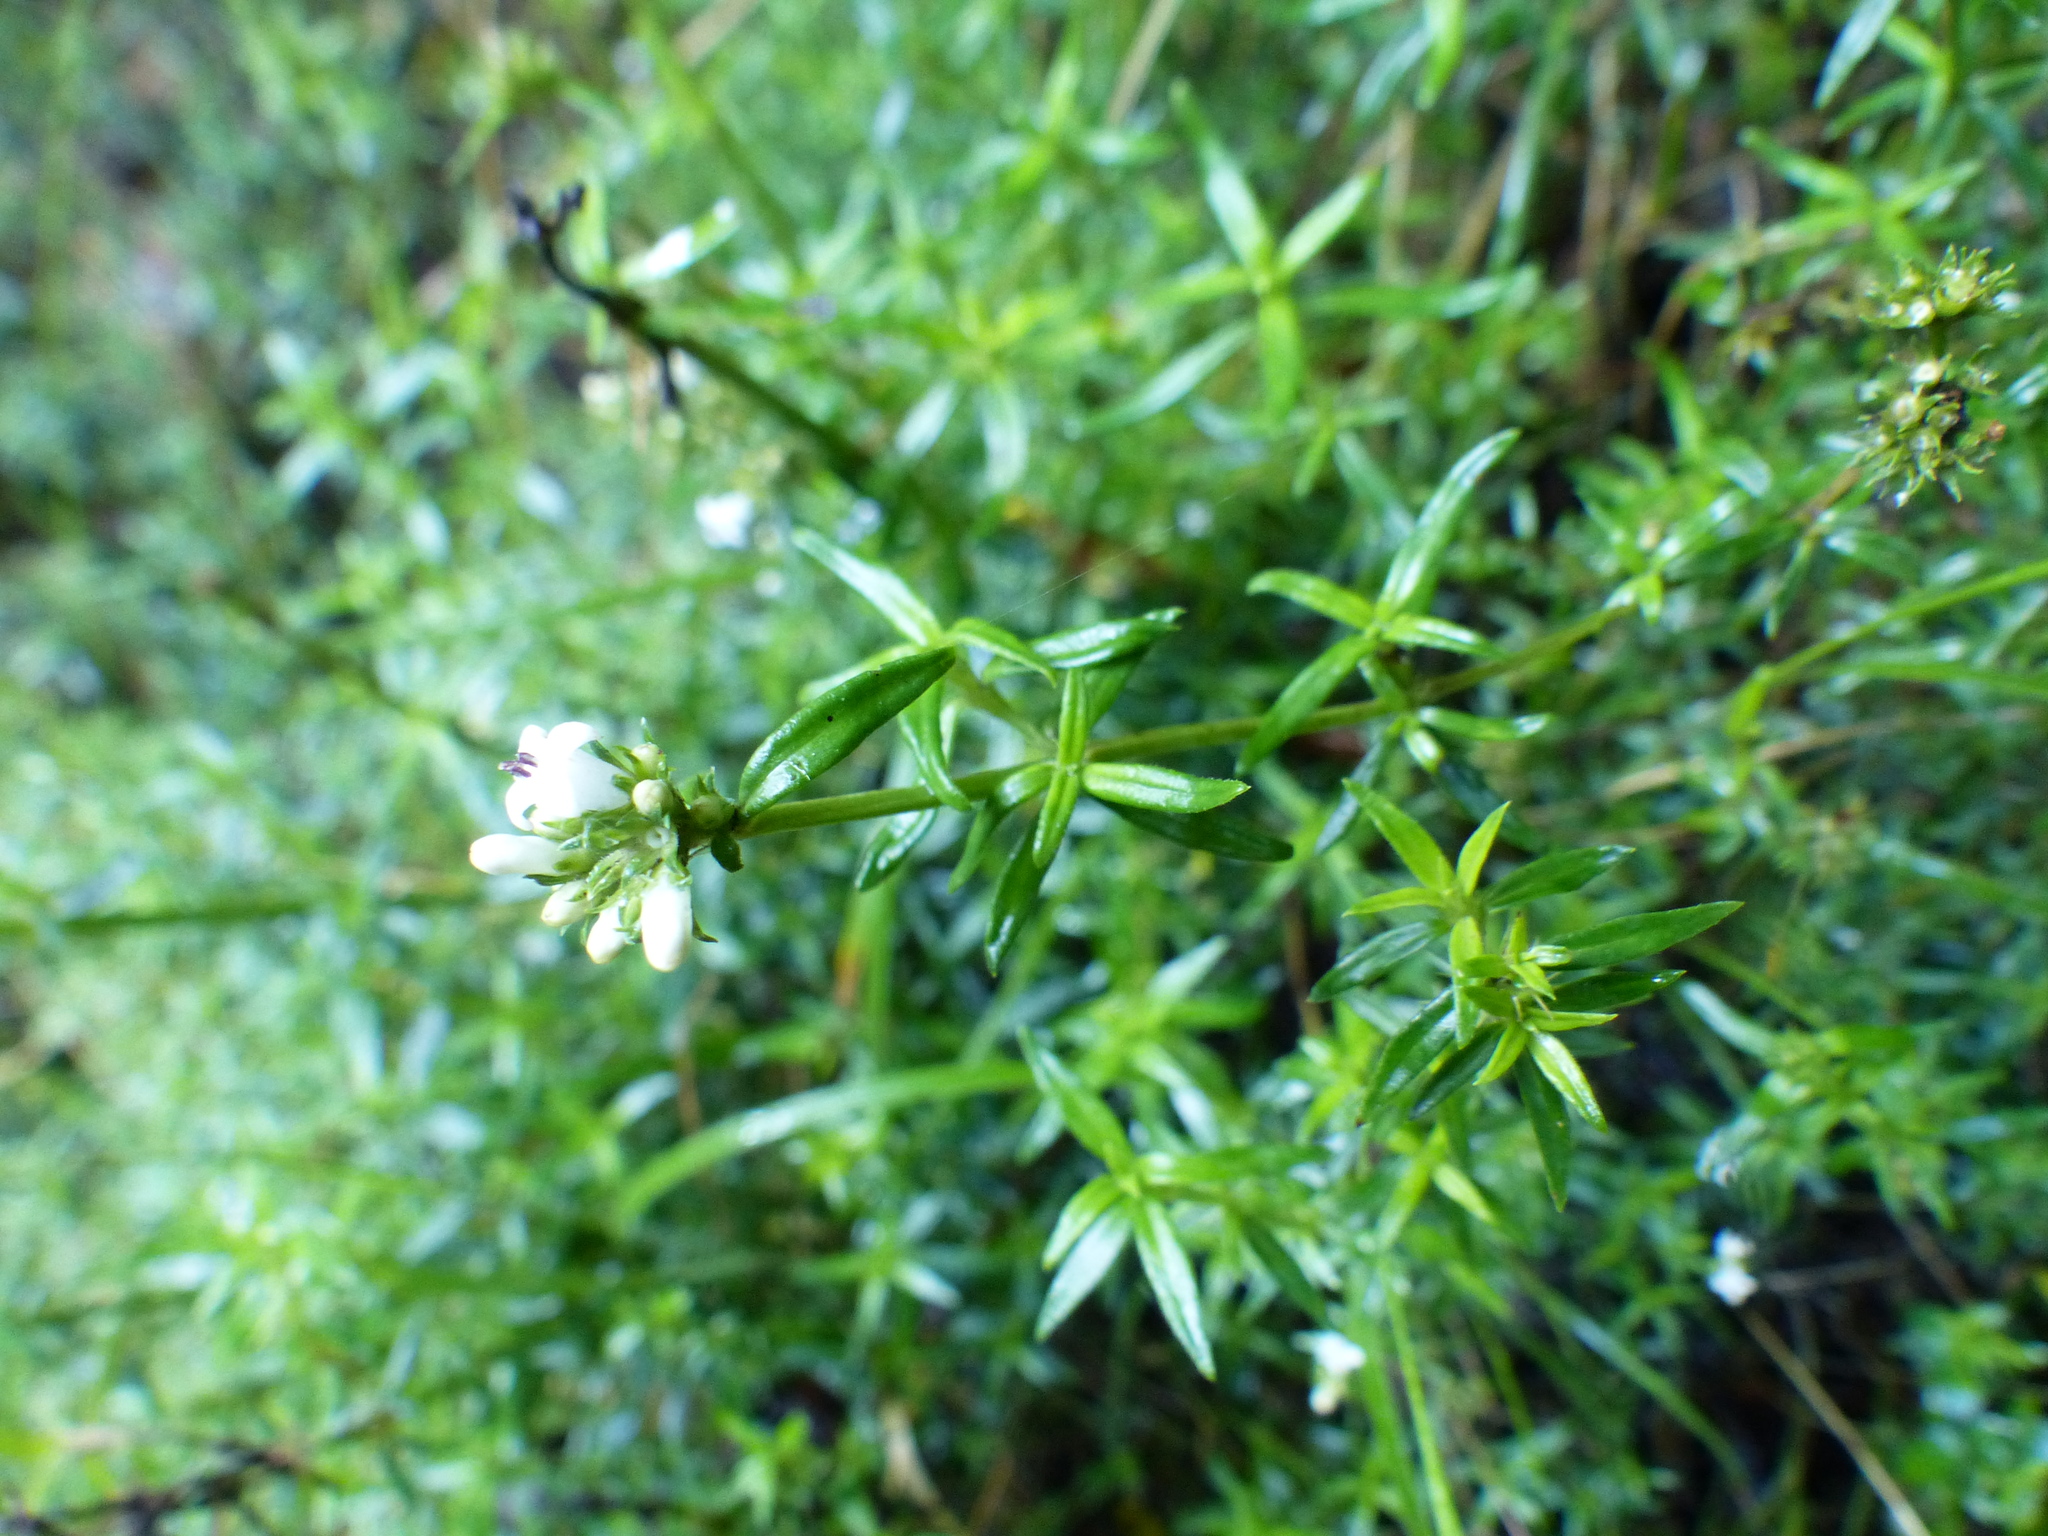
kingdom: Plantae
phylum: Tracheophyta
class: Magnoliopsida
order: Gentianales
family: Rubiaceae
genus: Galianthe
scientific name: Galianthe bogotensis
